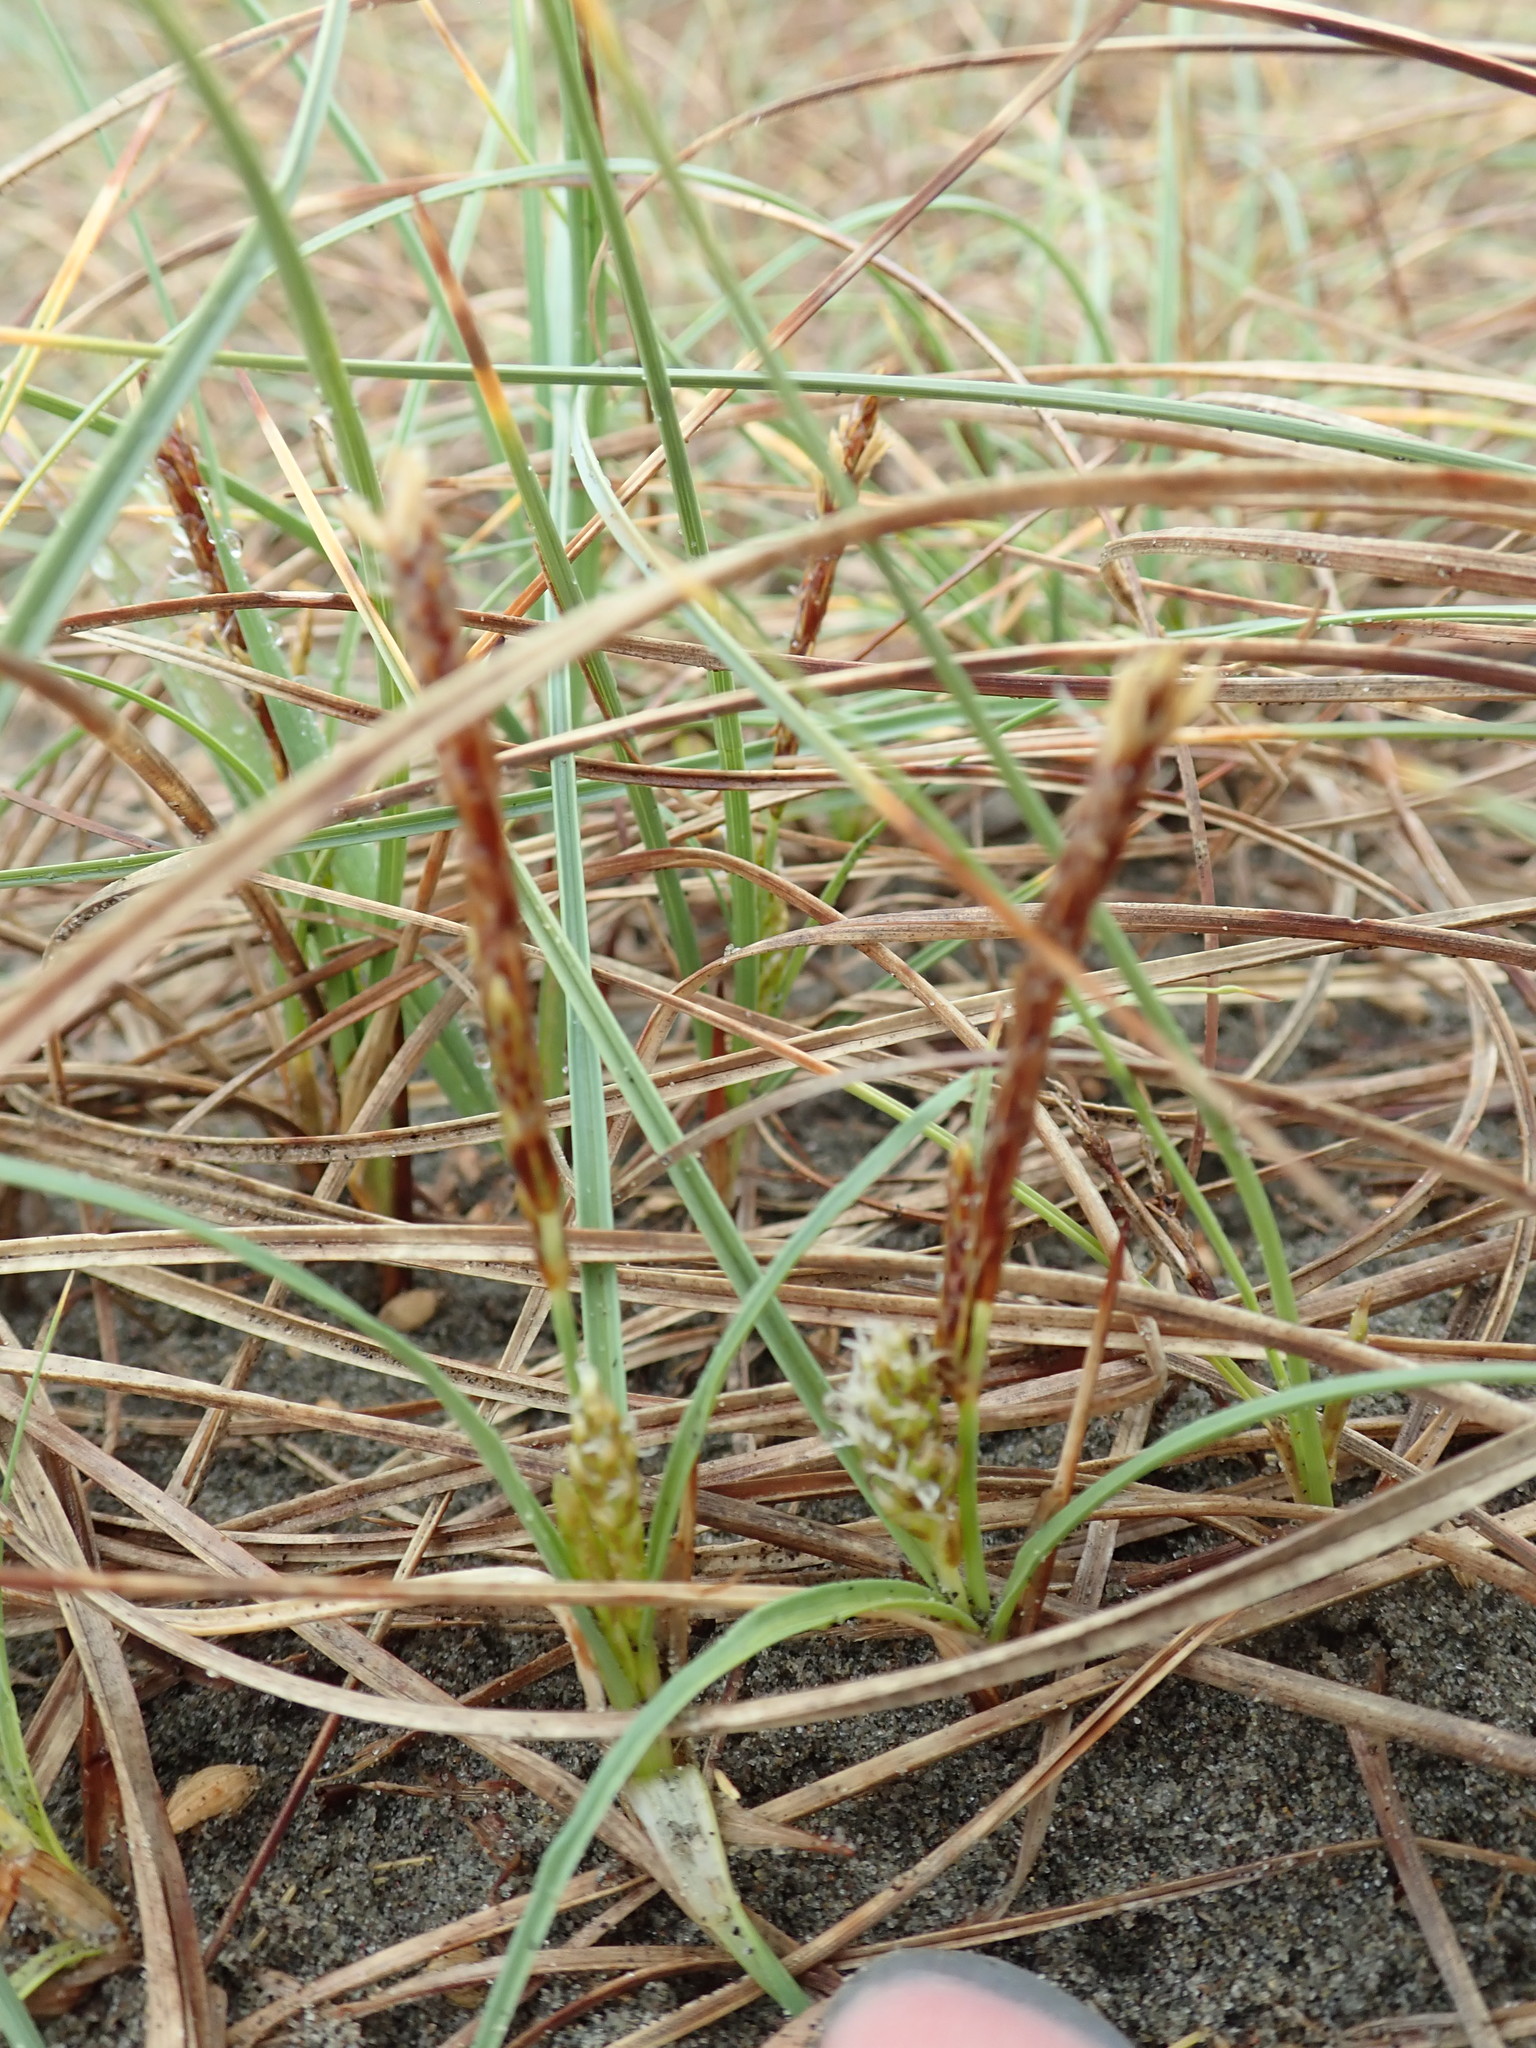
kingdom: Plantae
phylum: Tracheophyta
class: Liliopsida
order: Poales
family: Cyperaceae
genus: Carex
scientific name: Carex pumila
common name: Dwarf sedge
